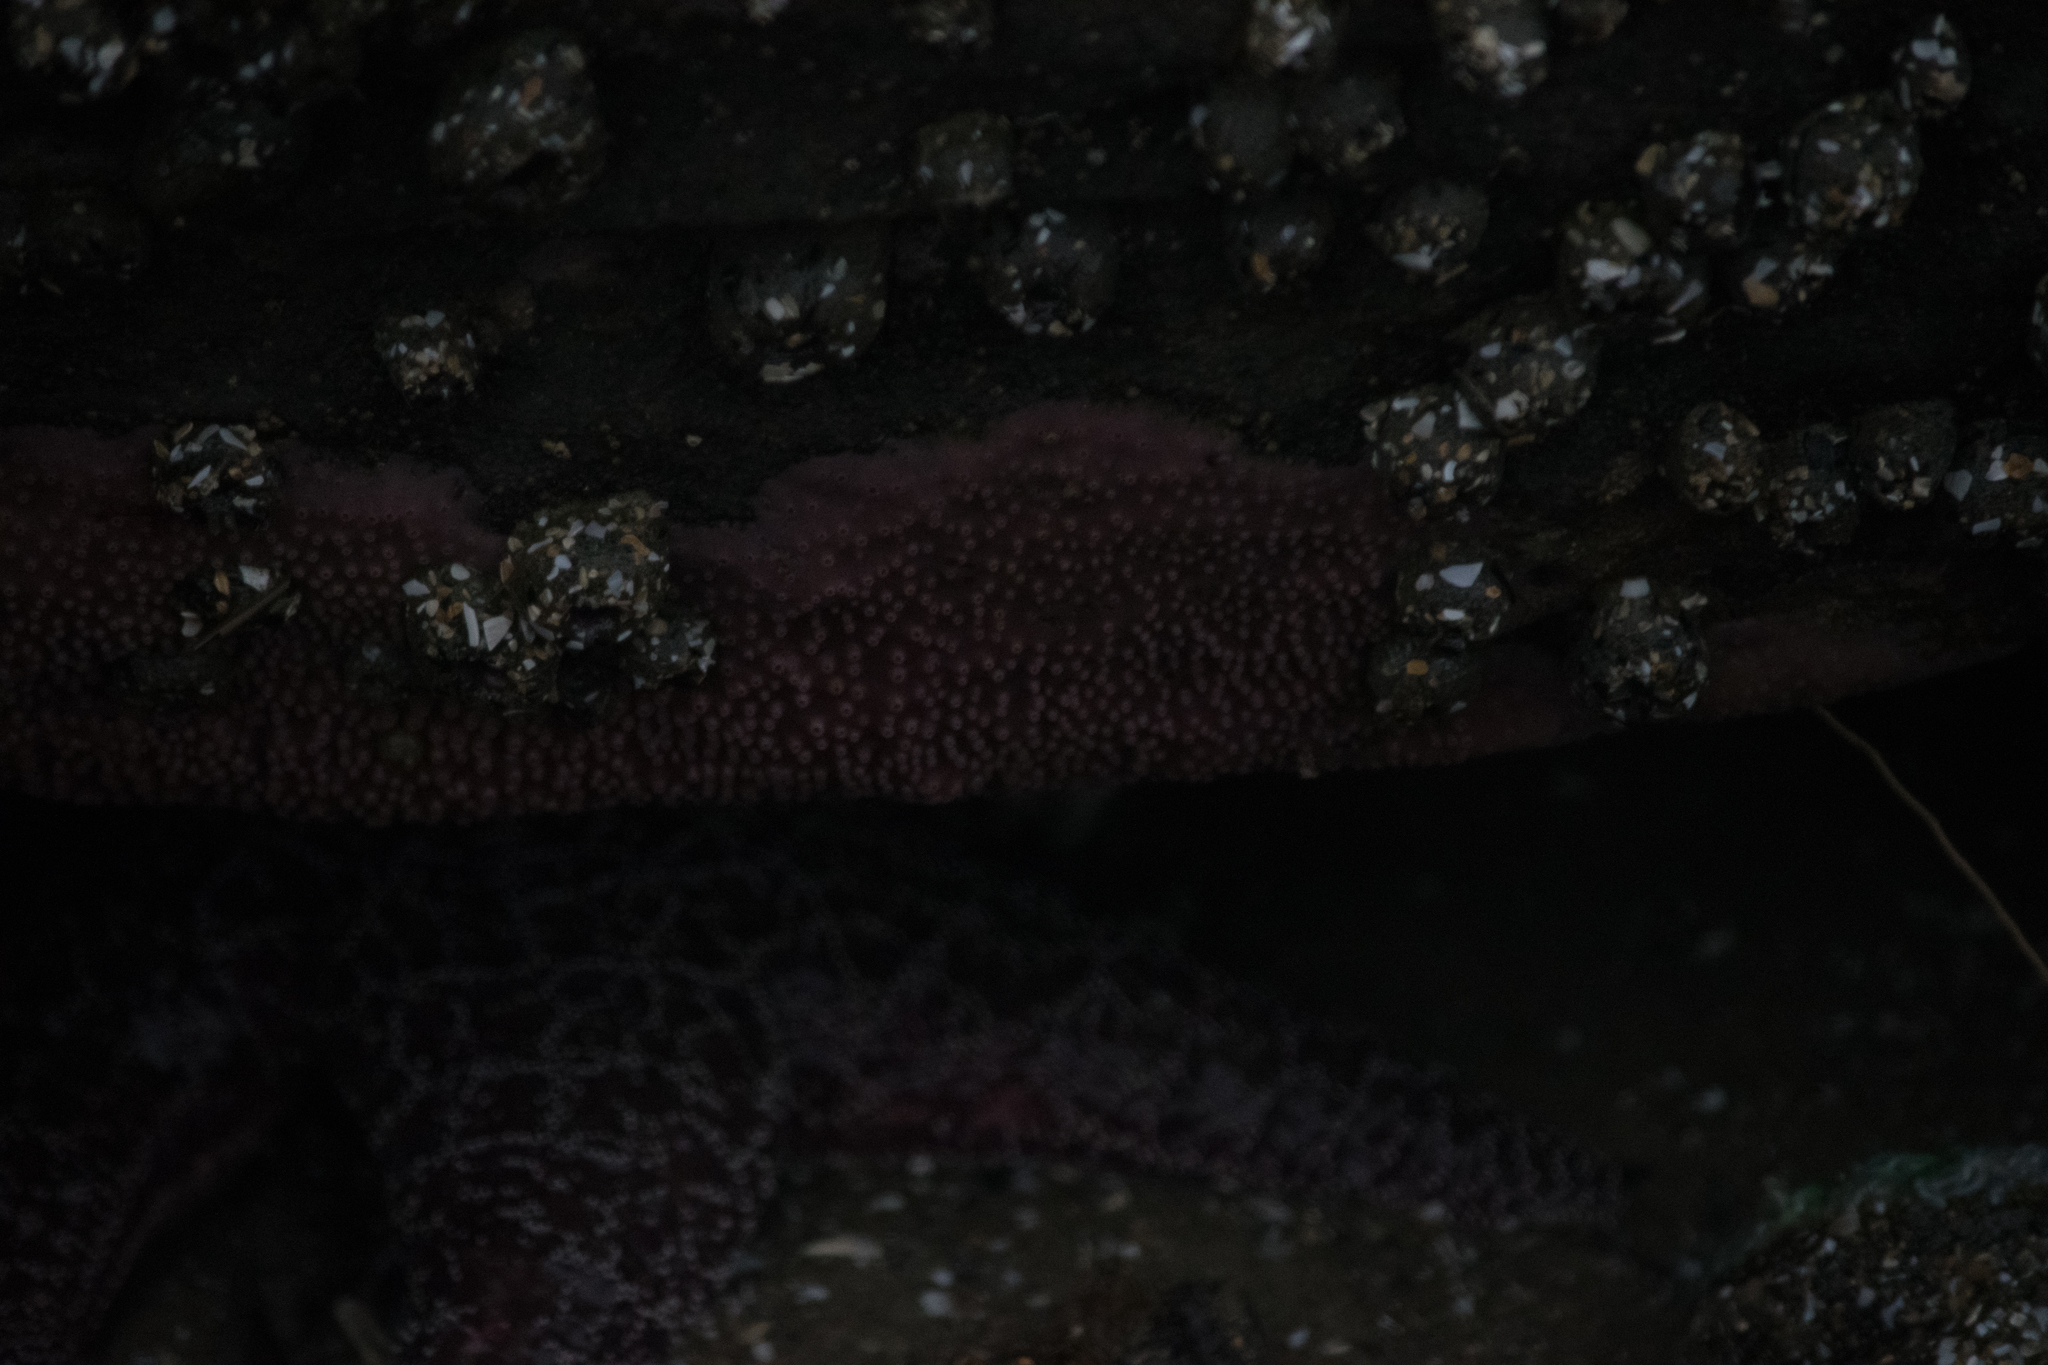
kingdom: Animalia
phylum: Porifera
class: Demospongiae
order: Haplosclerida
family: Chalinidae
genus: Haliclona
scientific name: Haliclona
